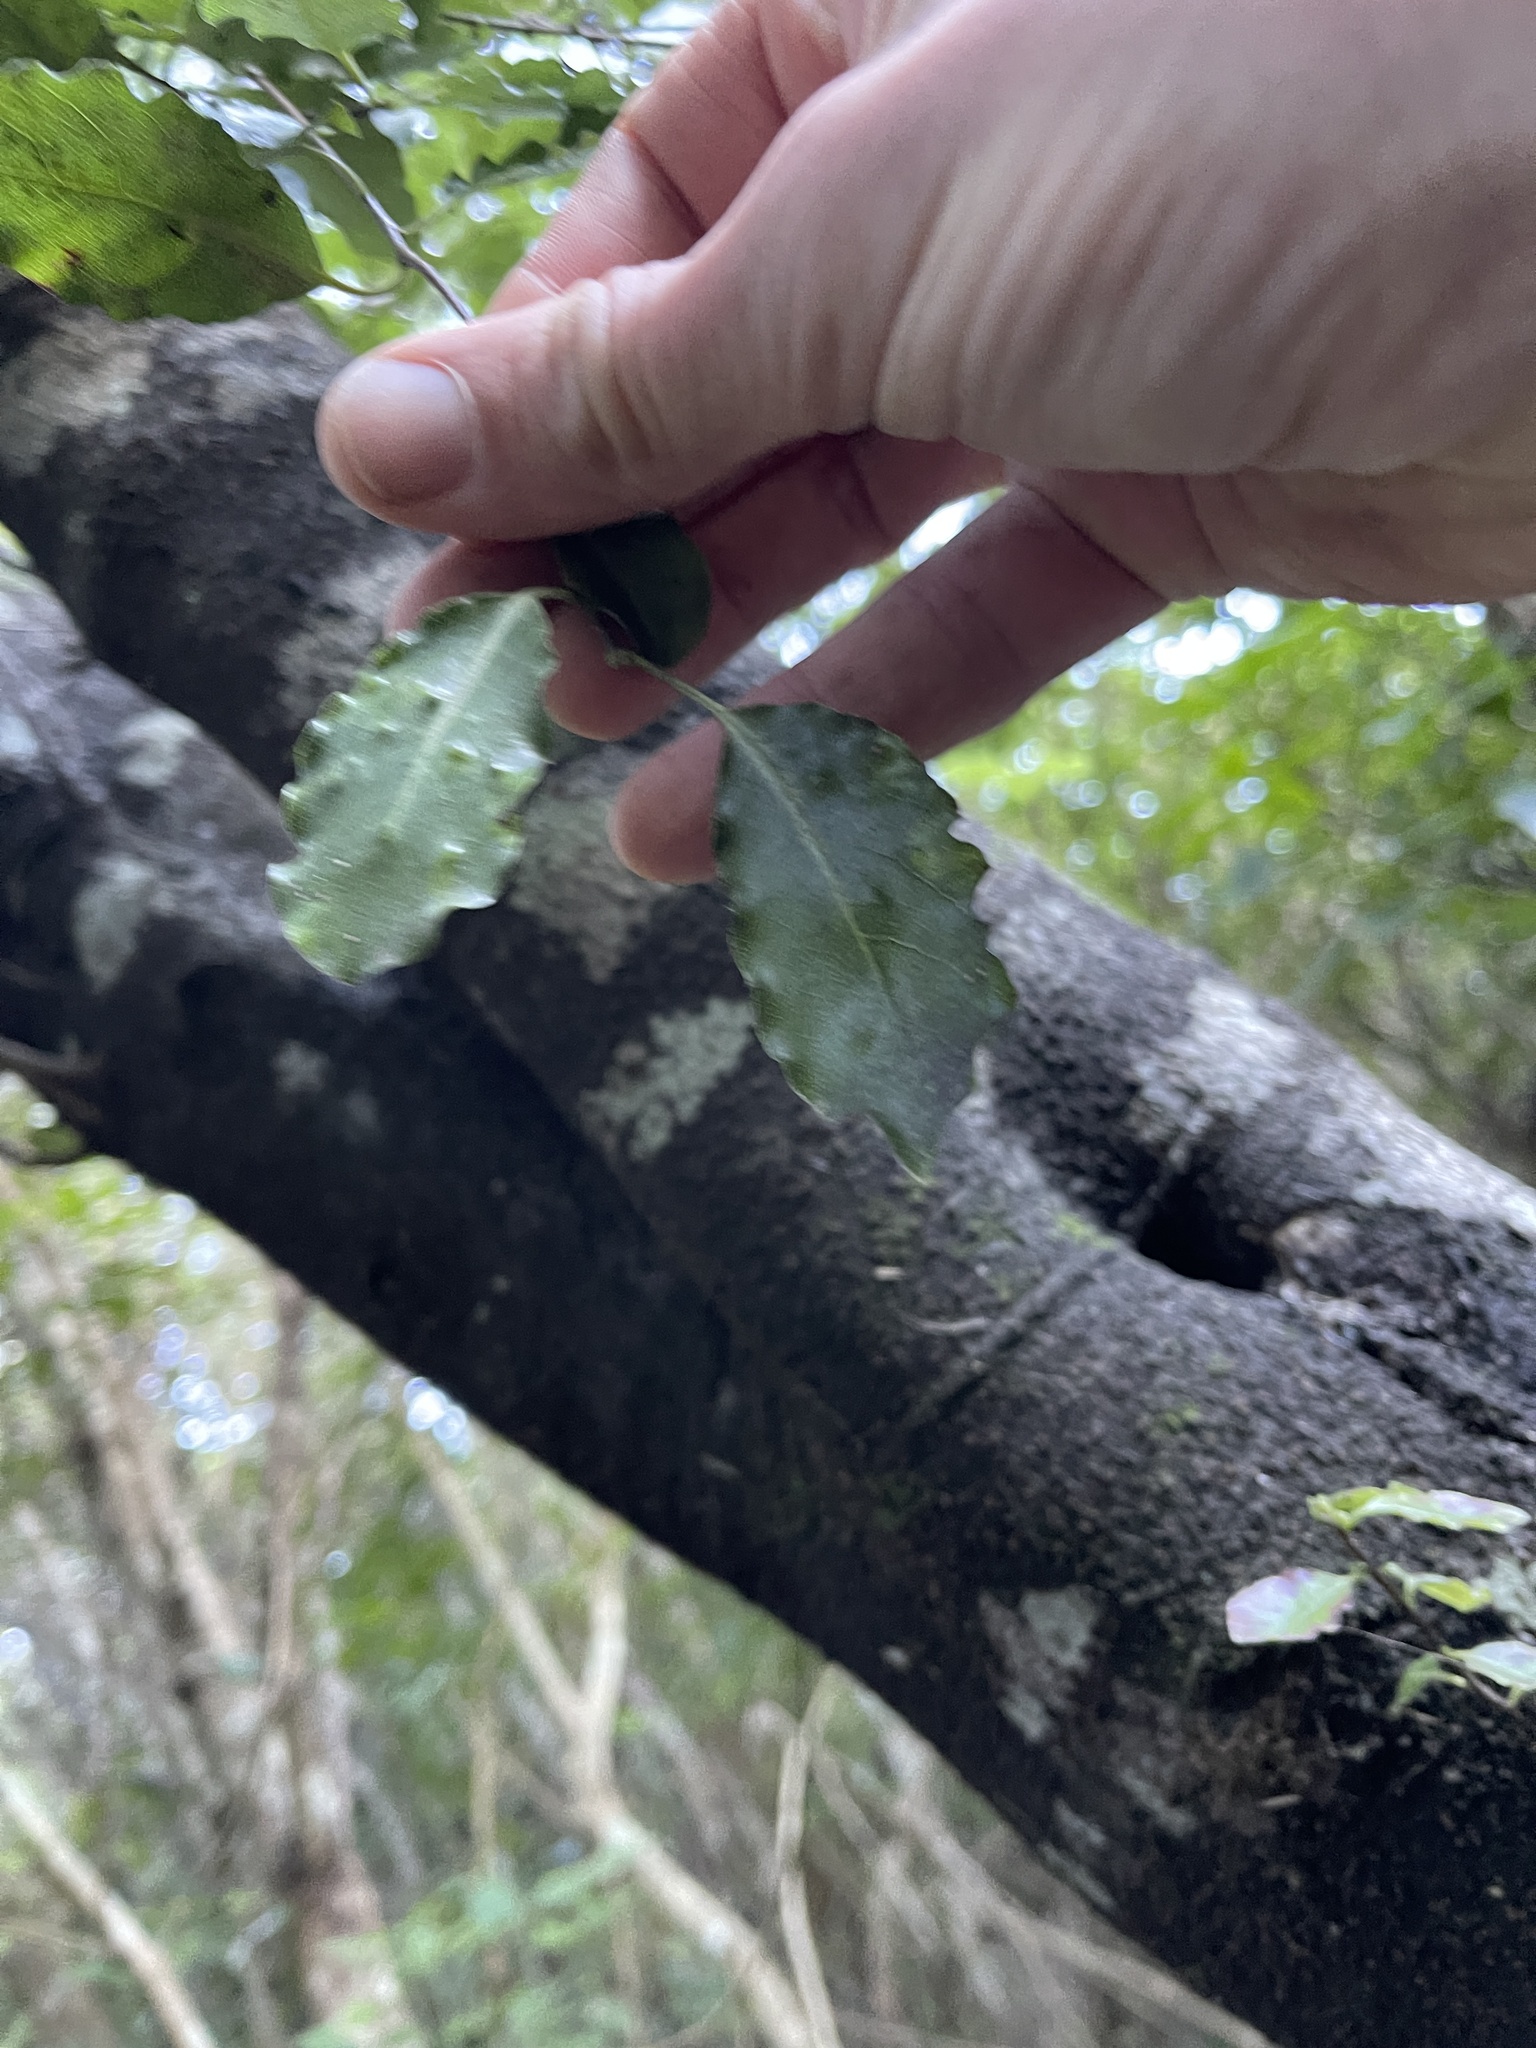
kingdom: Plantae
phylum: Tracheophyta
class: Magnoliopsida
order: Apiales
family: Pittosporaceae
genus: Pittosporum
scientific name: Pittosporum tenuifolium
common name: Kohuhu
